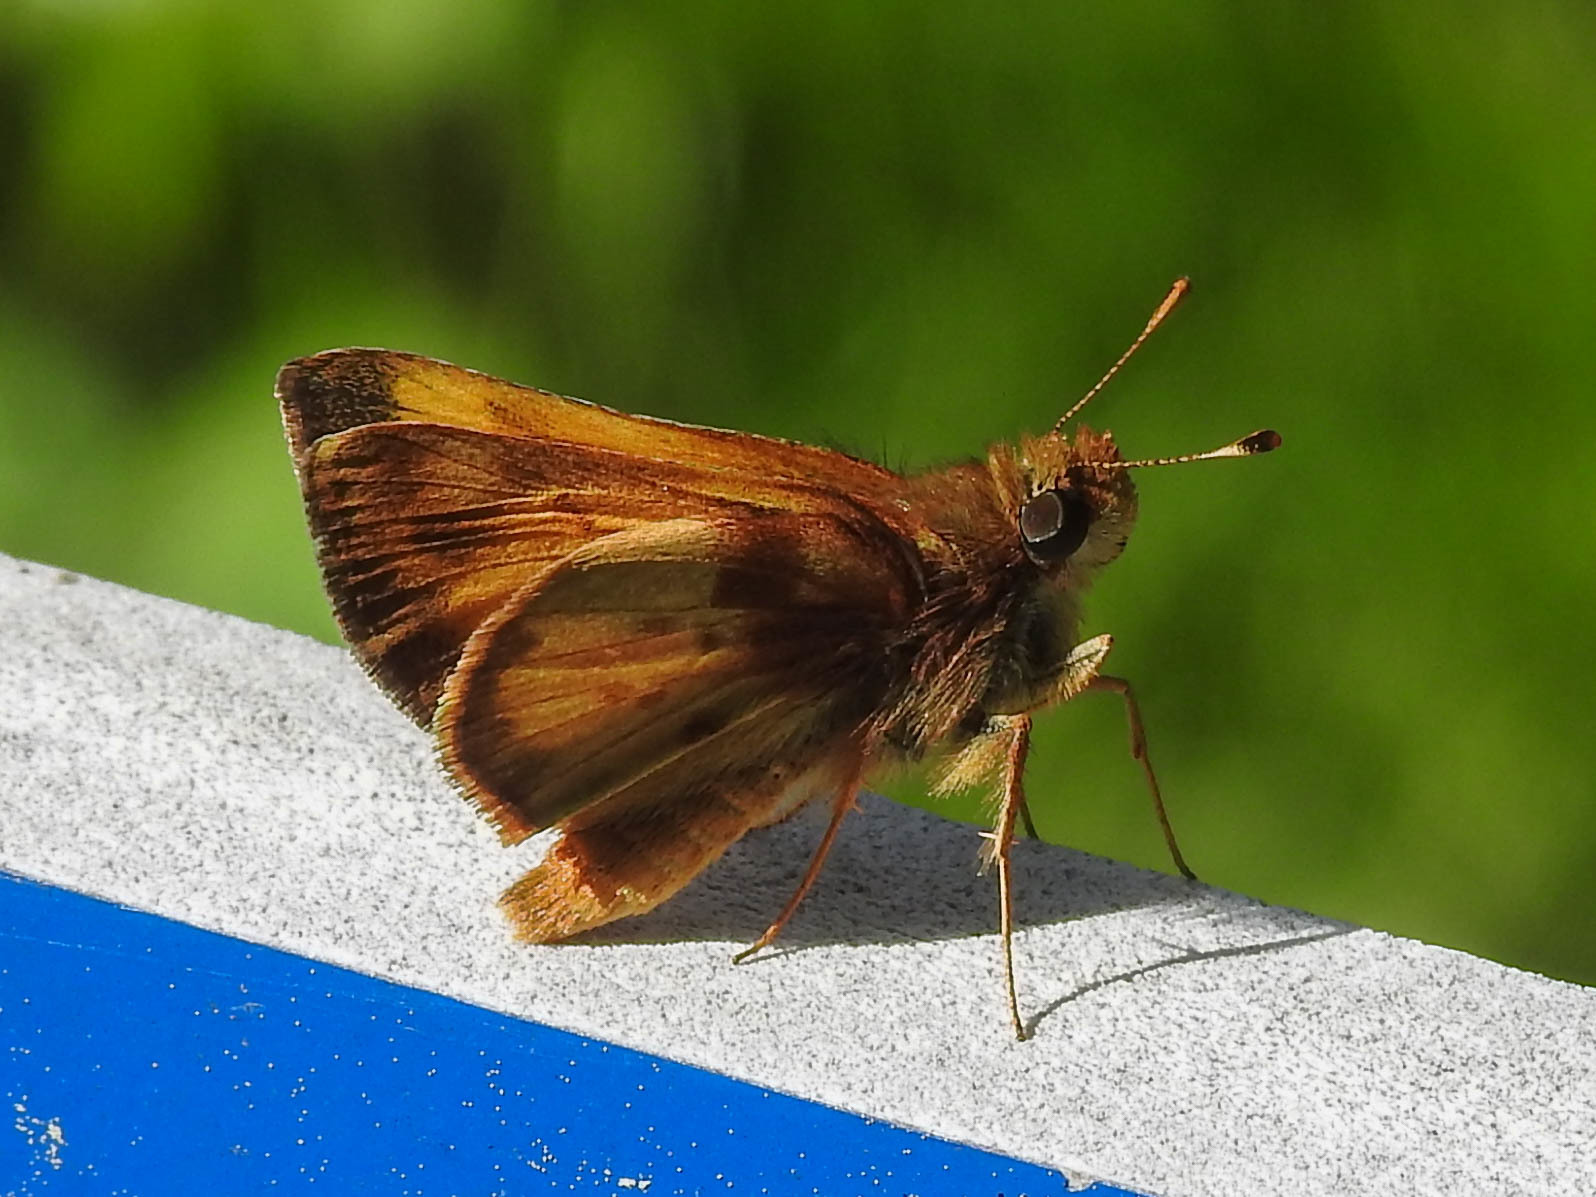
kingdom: Animalia
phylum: Arthropoda
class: Insecta
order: Lepidoptera
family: Hesperiidae
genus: Lon
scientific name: Lon zabulon
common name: Zabulon skipper
